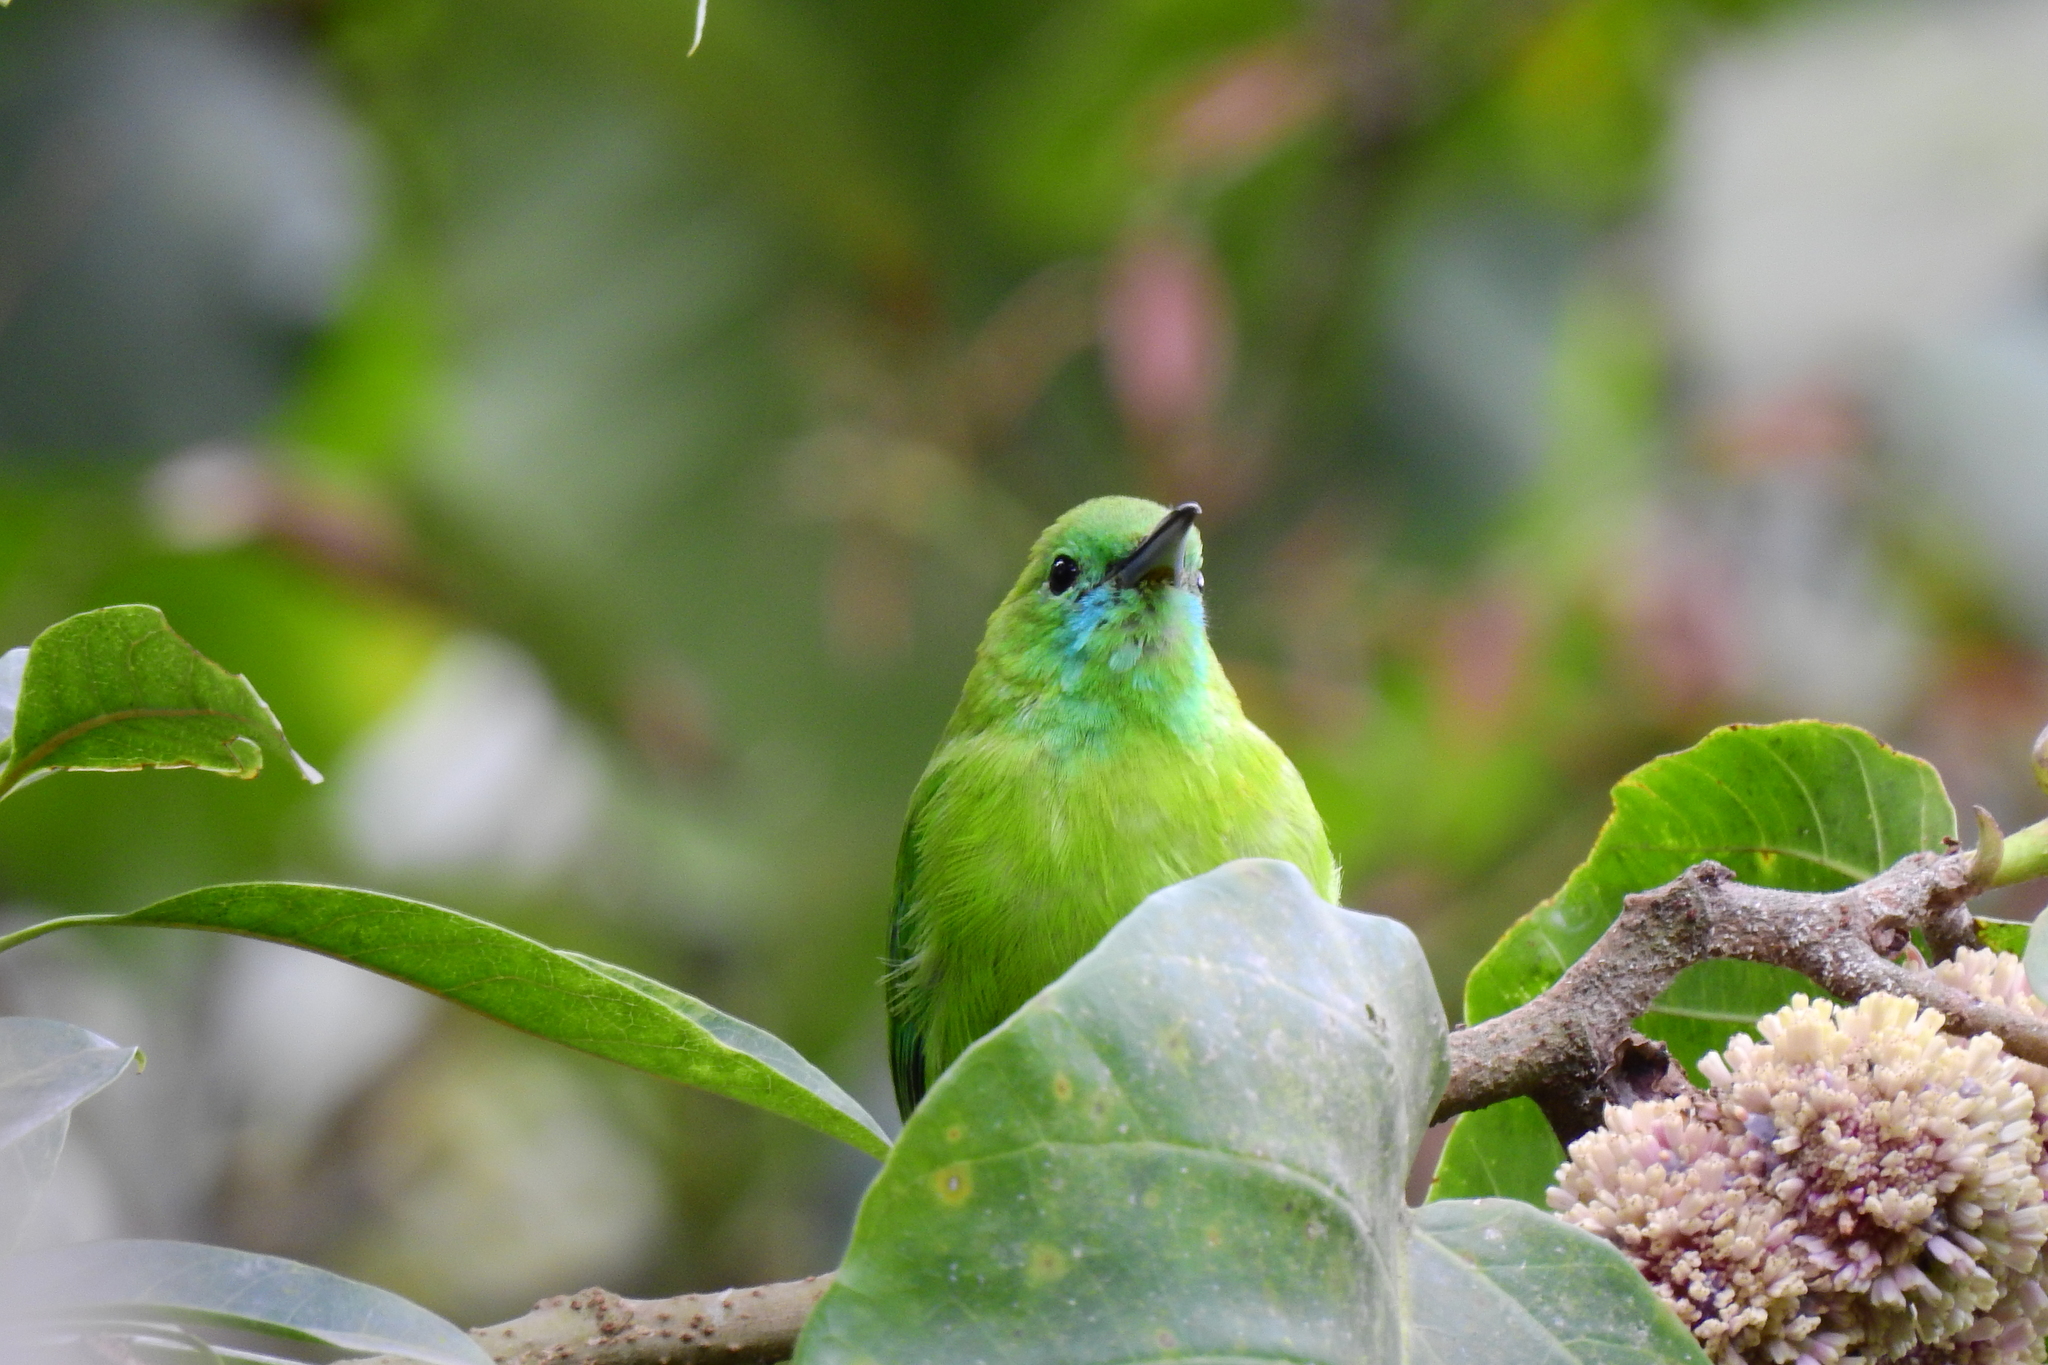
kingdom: Animalia
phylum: Chordata
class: Aves
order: Passeriformes
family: Chloropseidae
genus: Chloropsis
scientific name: Chloropsis cochinchinensis
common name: Blue-winged leafbird
